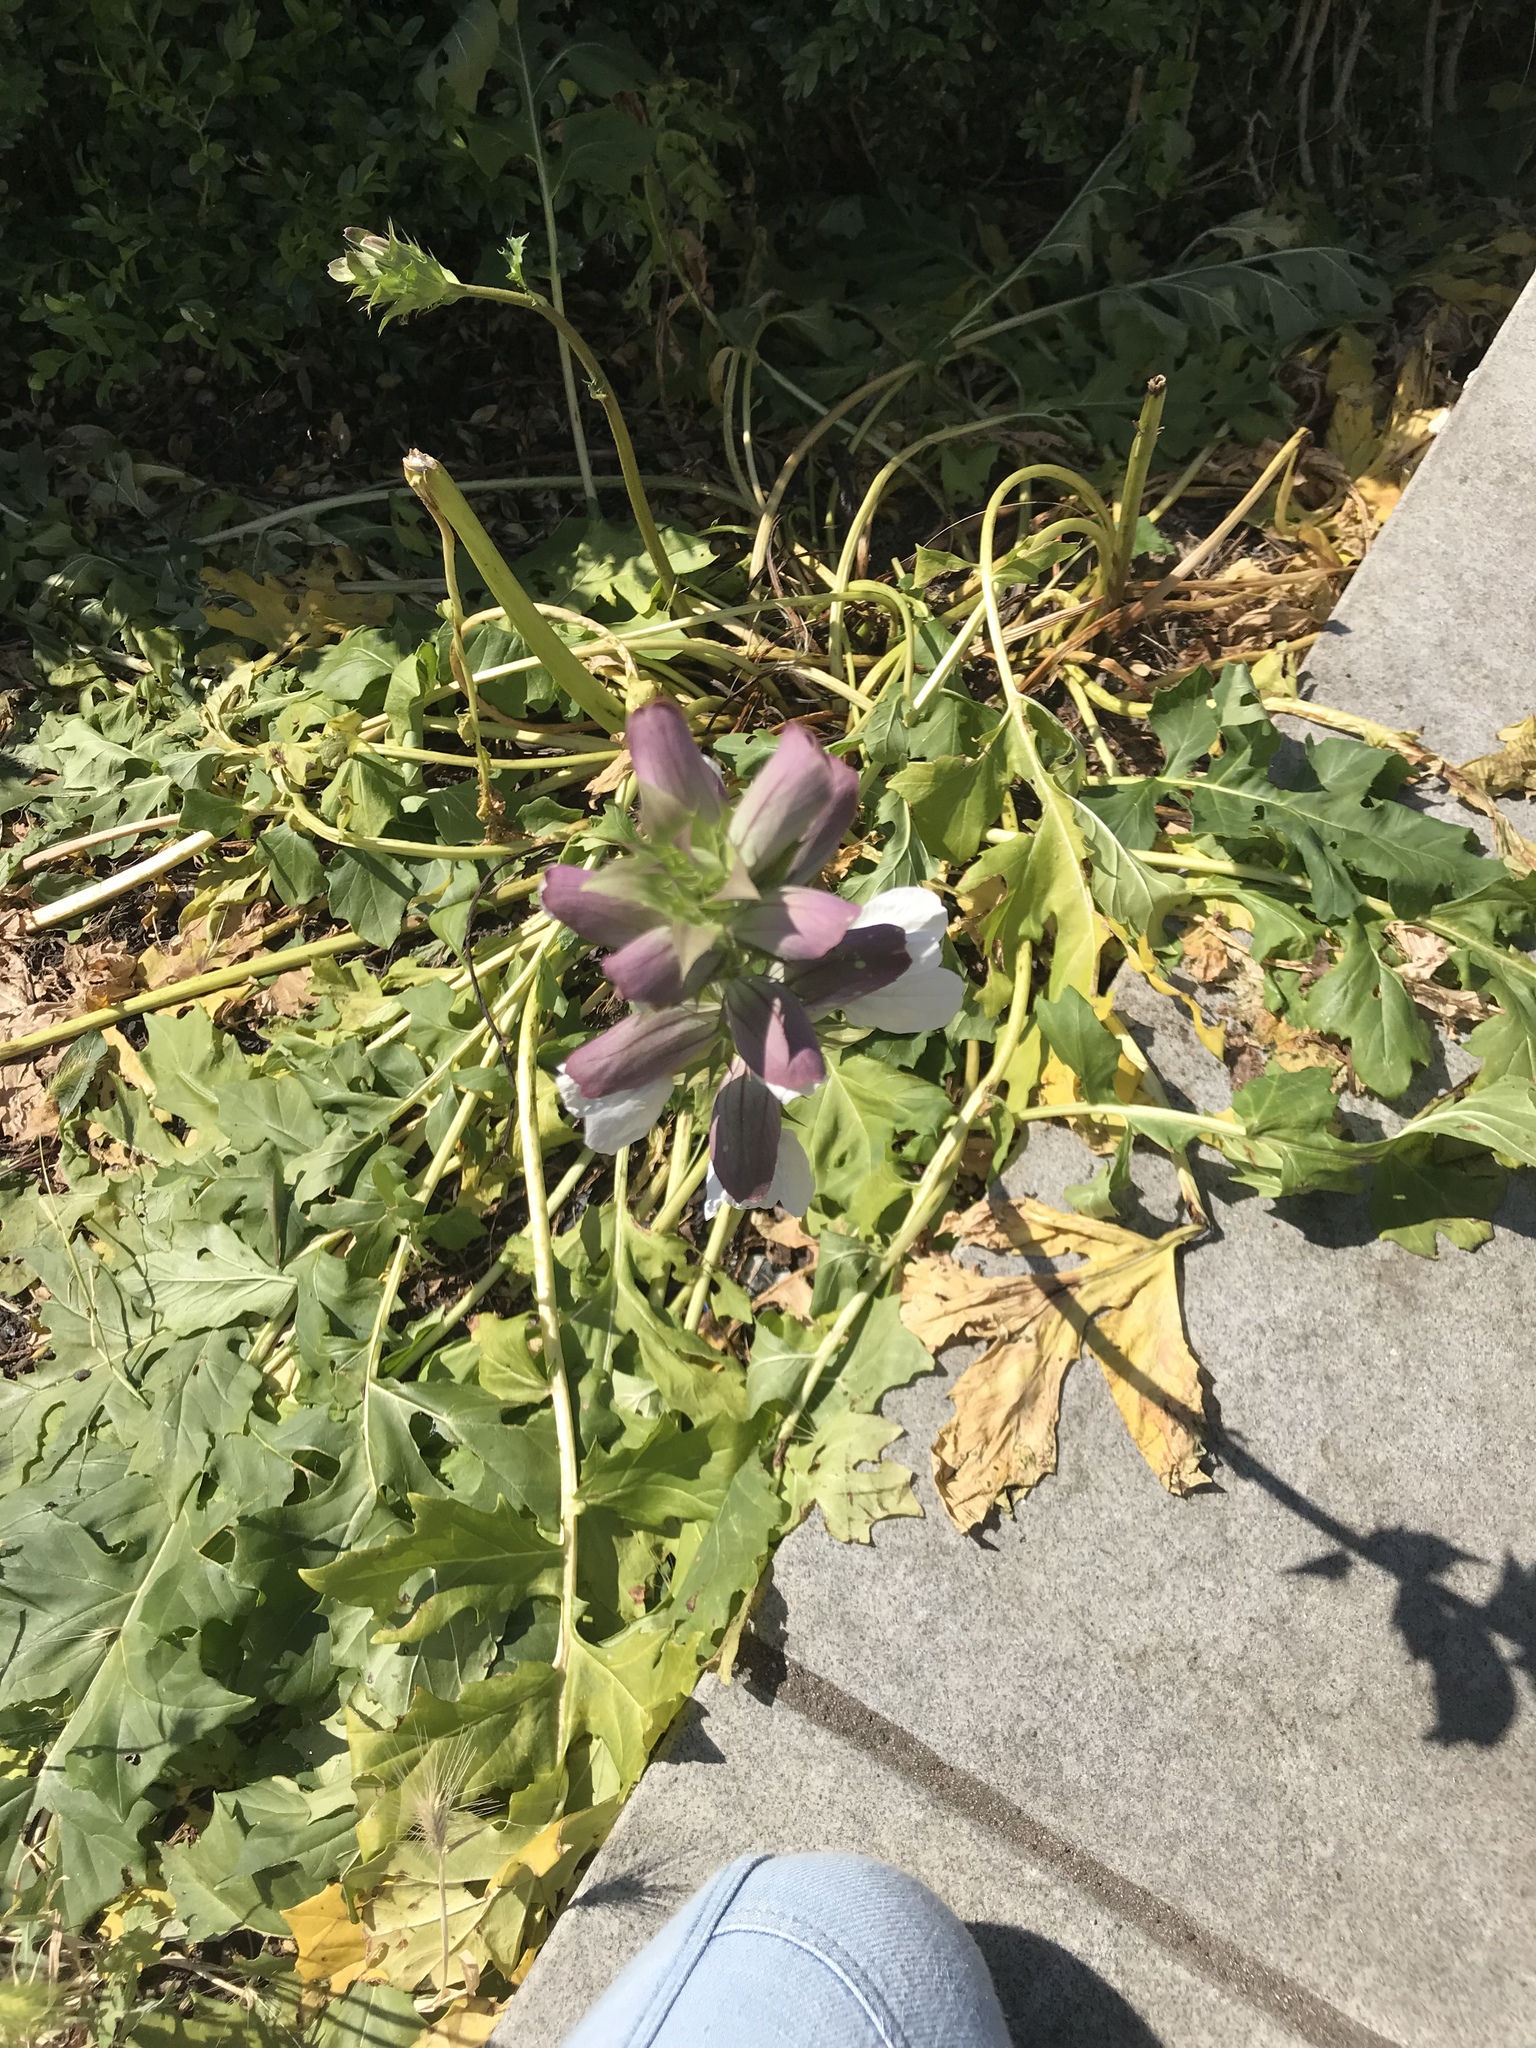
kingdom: Plantae
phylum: Tracheophyta
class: Magnoliopsida
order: Lamiales
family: Acanthaceae
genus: Acanthus
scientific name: Acanthus mollis
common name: Bear's-breech
